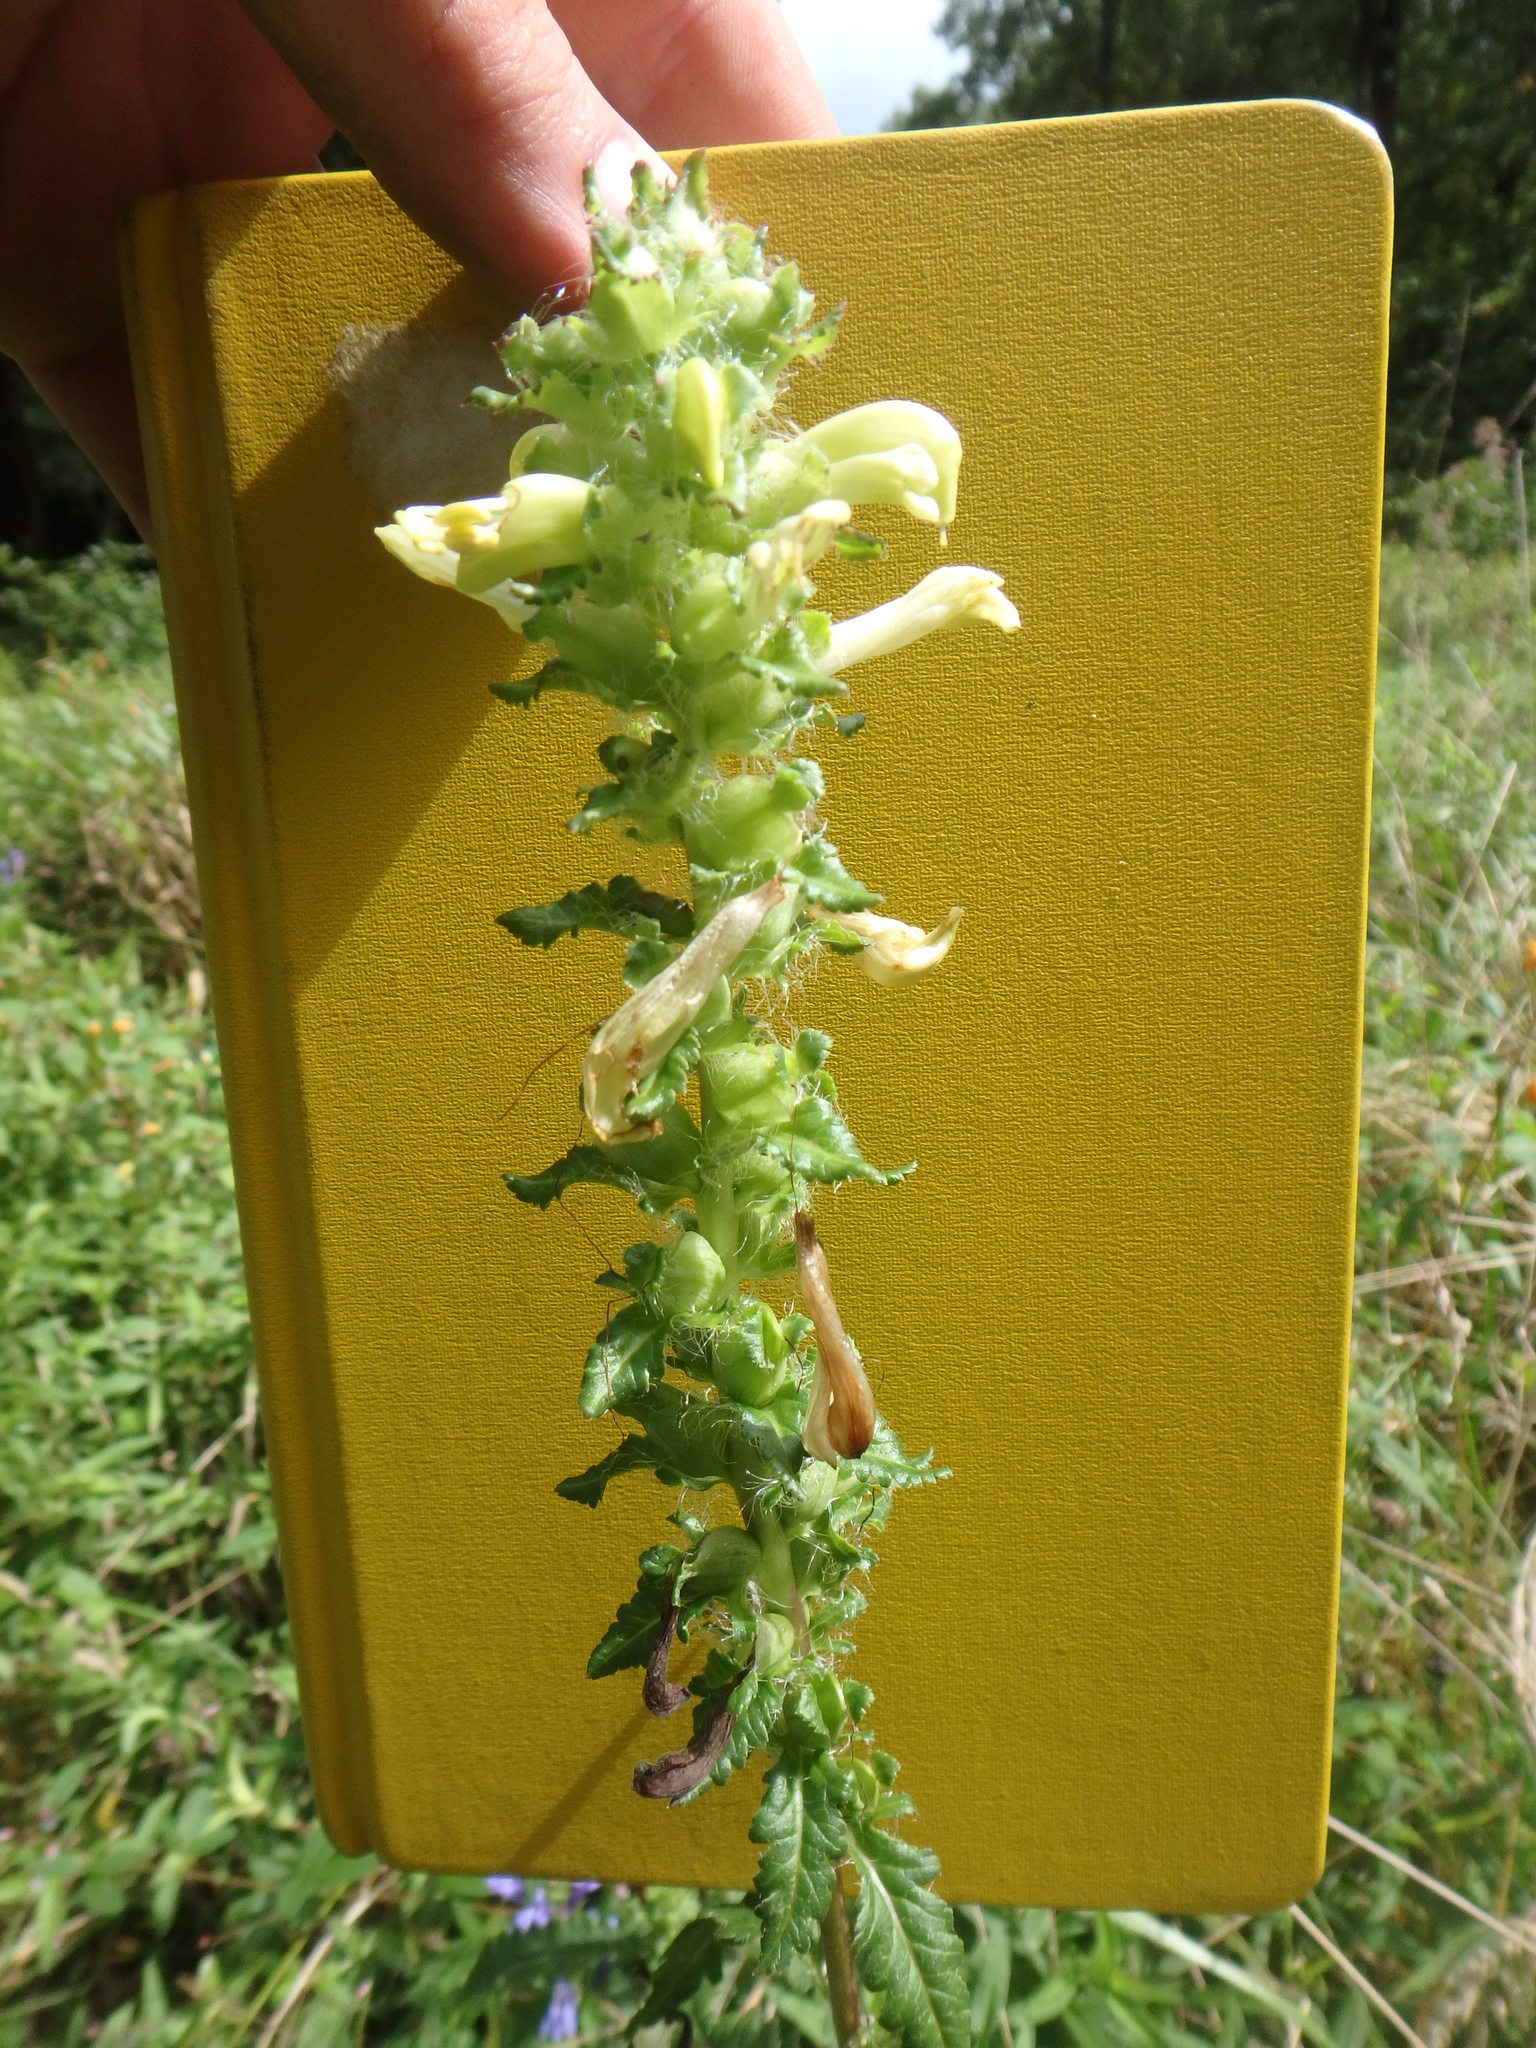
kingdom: Plantae
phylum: Tracheophyta
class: Magnoliopsida
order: Lamiales
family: Orobanchaceae
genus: Pedicularis
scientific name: Pedicularis lanceolata
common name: Swamp lousewort
